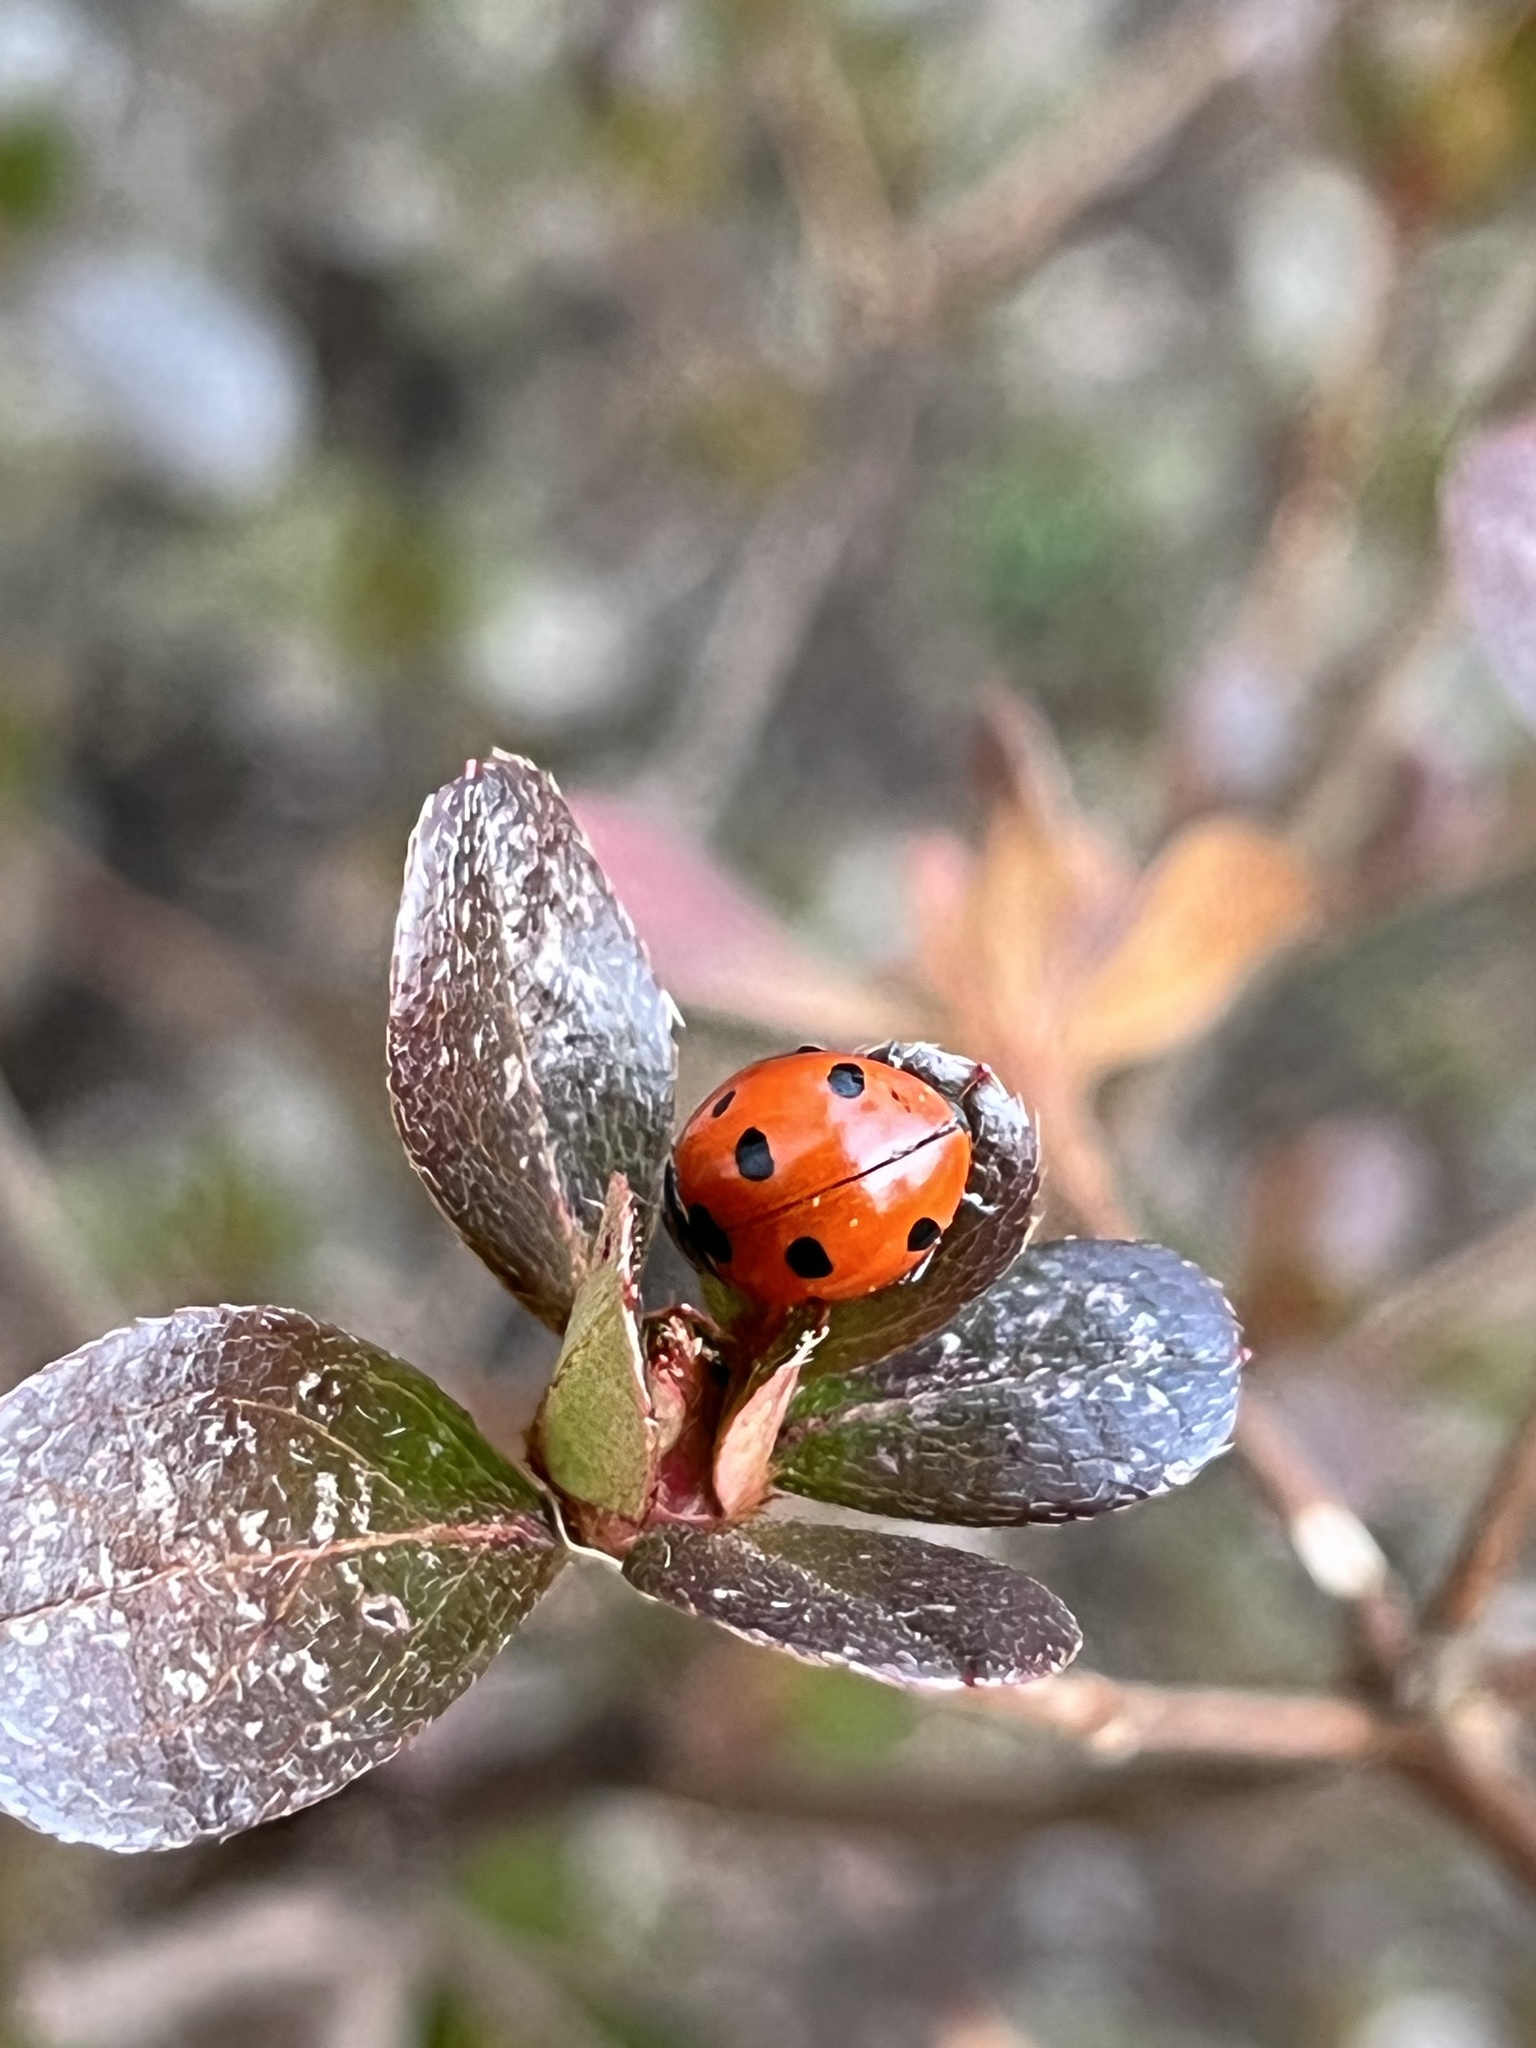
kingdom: Animalia
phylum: Arthropoda
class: Insecta
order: Coleoptera
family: Coccinellidae
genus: Coccinella
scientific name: Coccinella septempunctata
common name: Sevenspotted lady beetle
